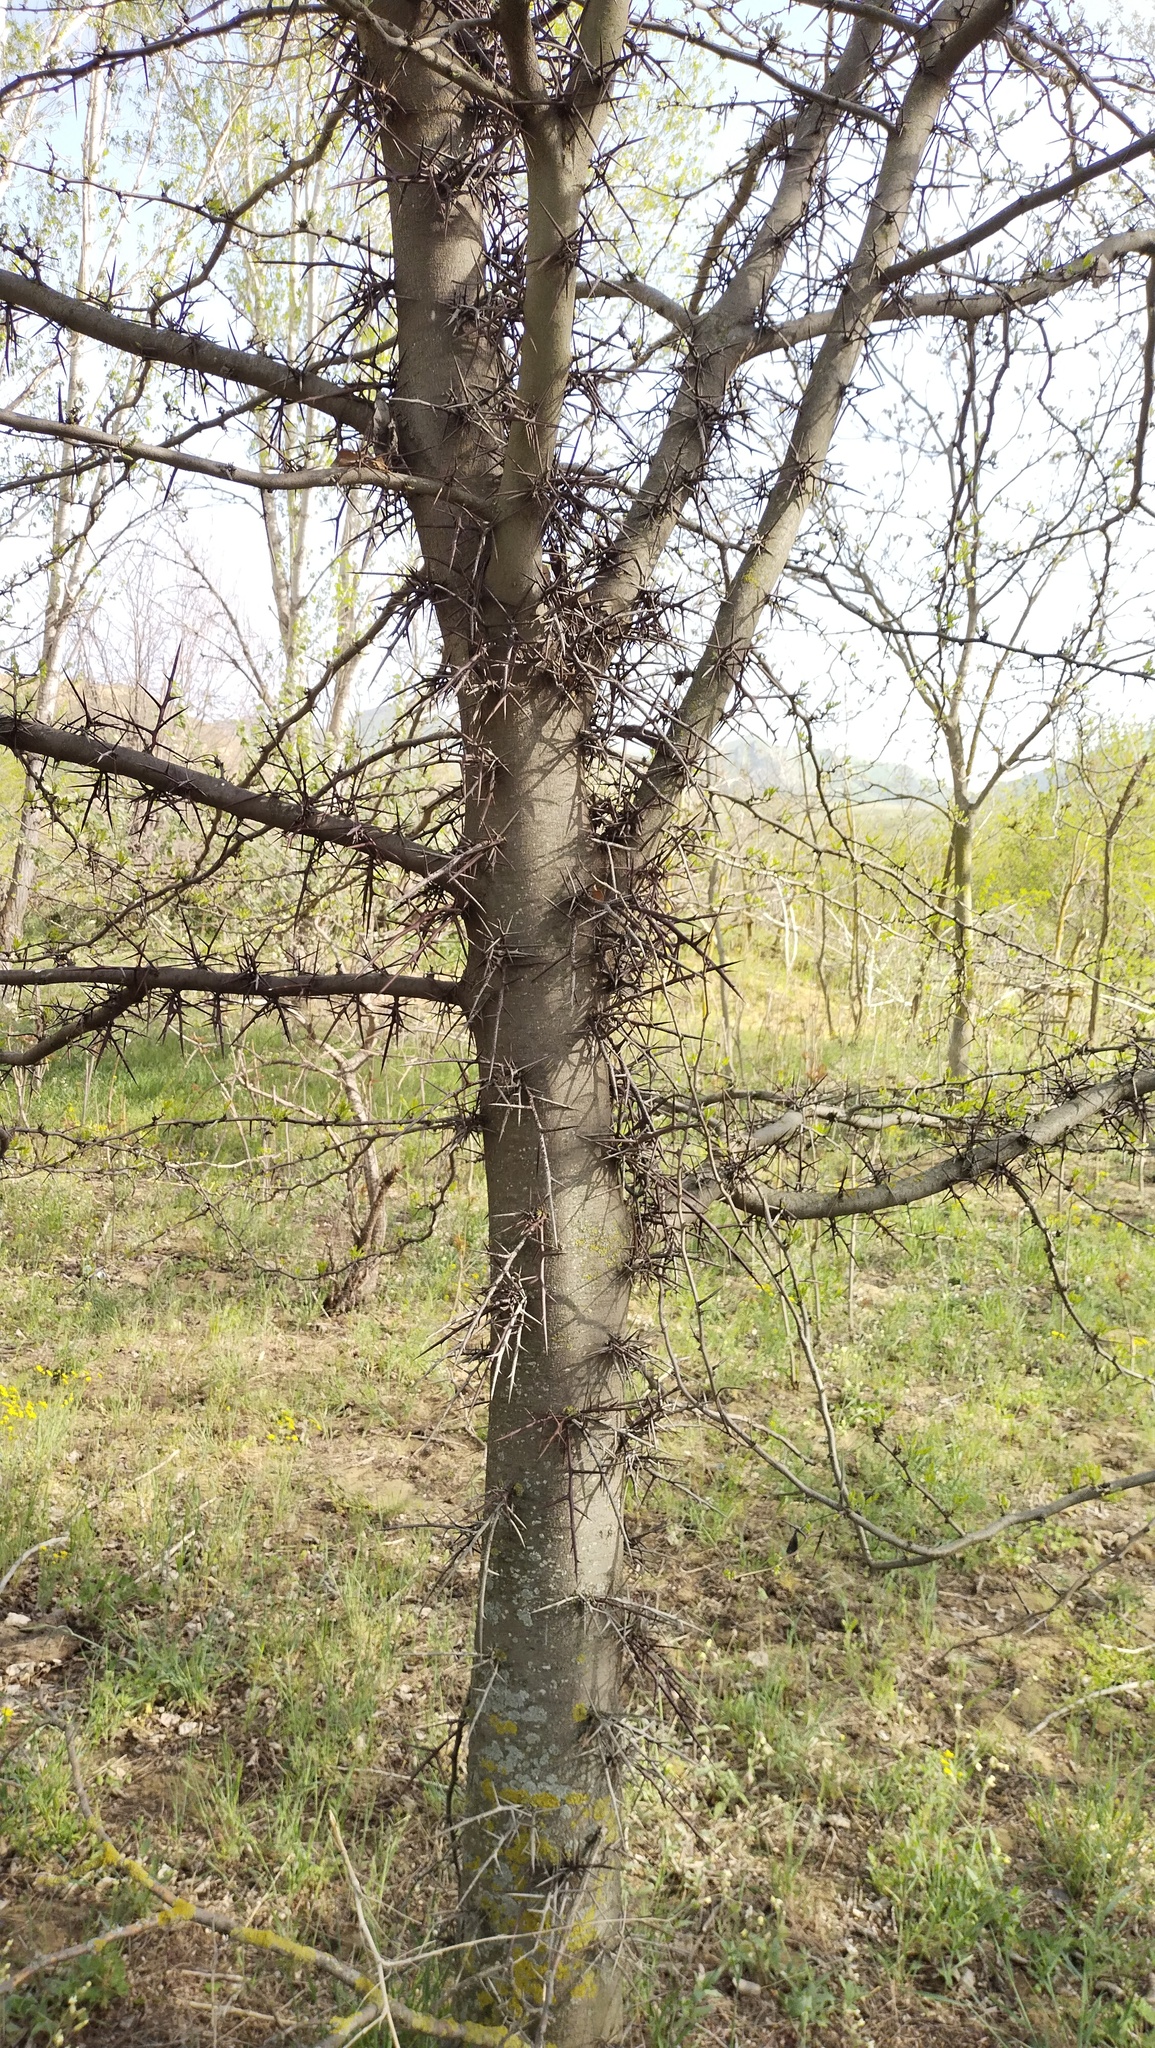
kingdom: Plantae
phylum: Tracheophyta
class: Magnoliopsida
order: Fabales
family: Fabaceae
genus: Gleditsia
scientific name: Gleditsia triacanthos
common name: Common honeylocust
